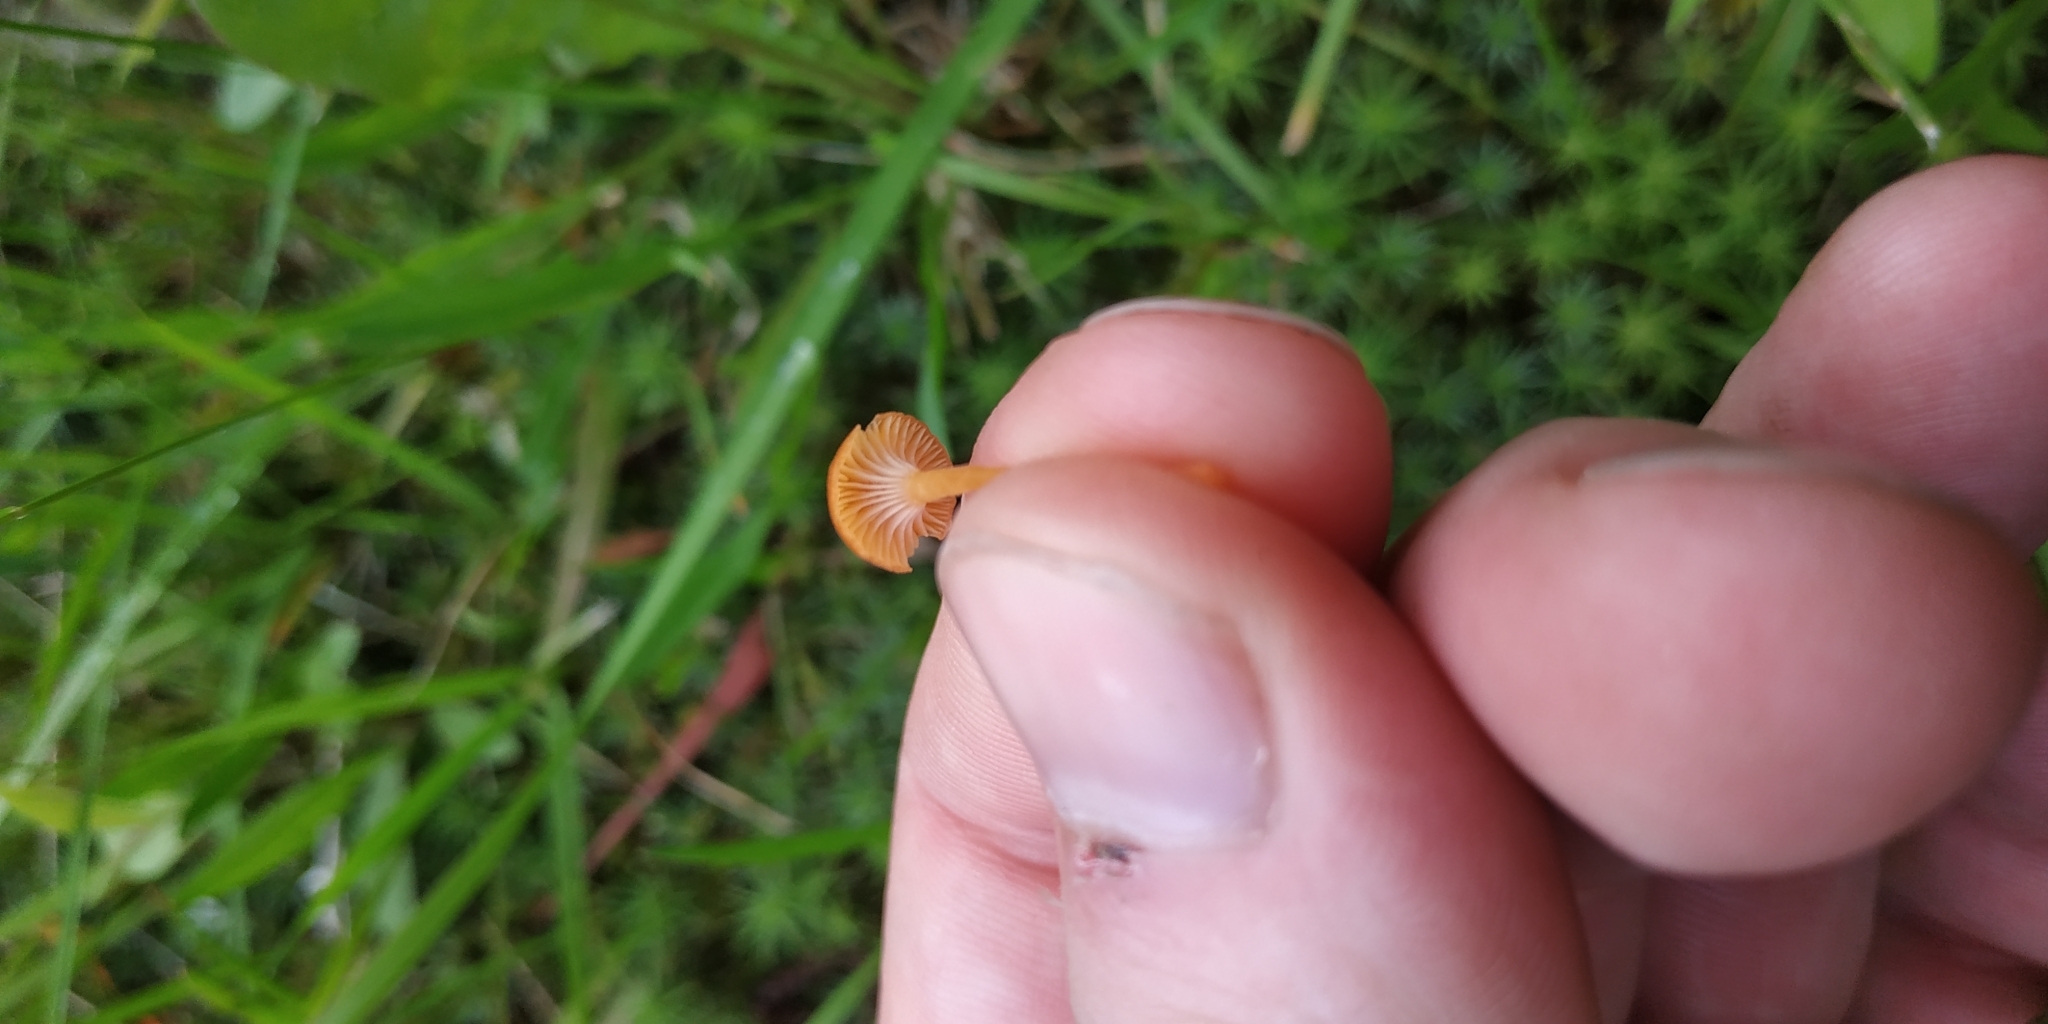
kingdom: Fungi
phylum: Basidiomycota
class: Agaricomycetes
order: Hymenochaetales
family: Rickenellaceae
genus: Rickenella
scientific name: Rickenella fibula
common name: Orange mosscap
